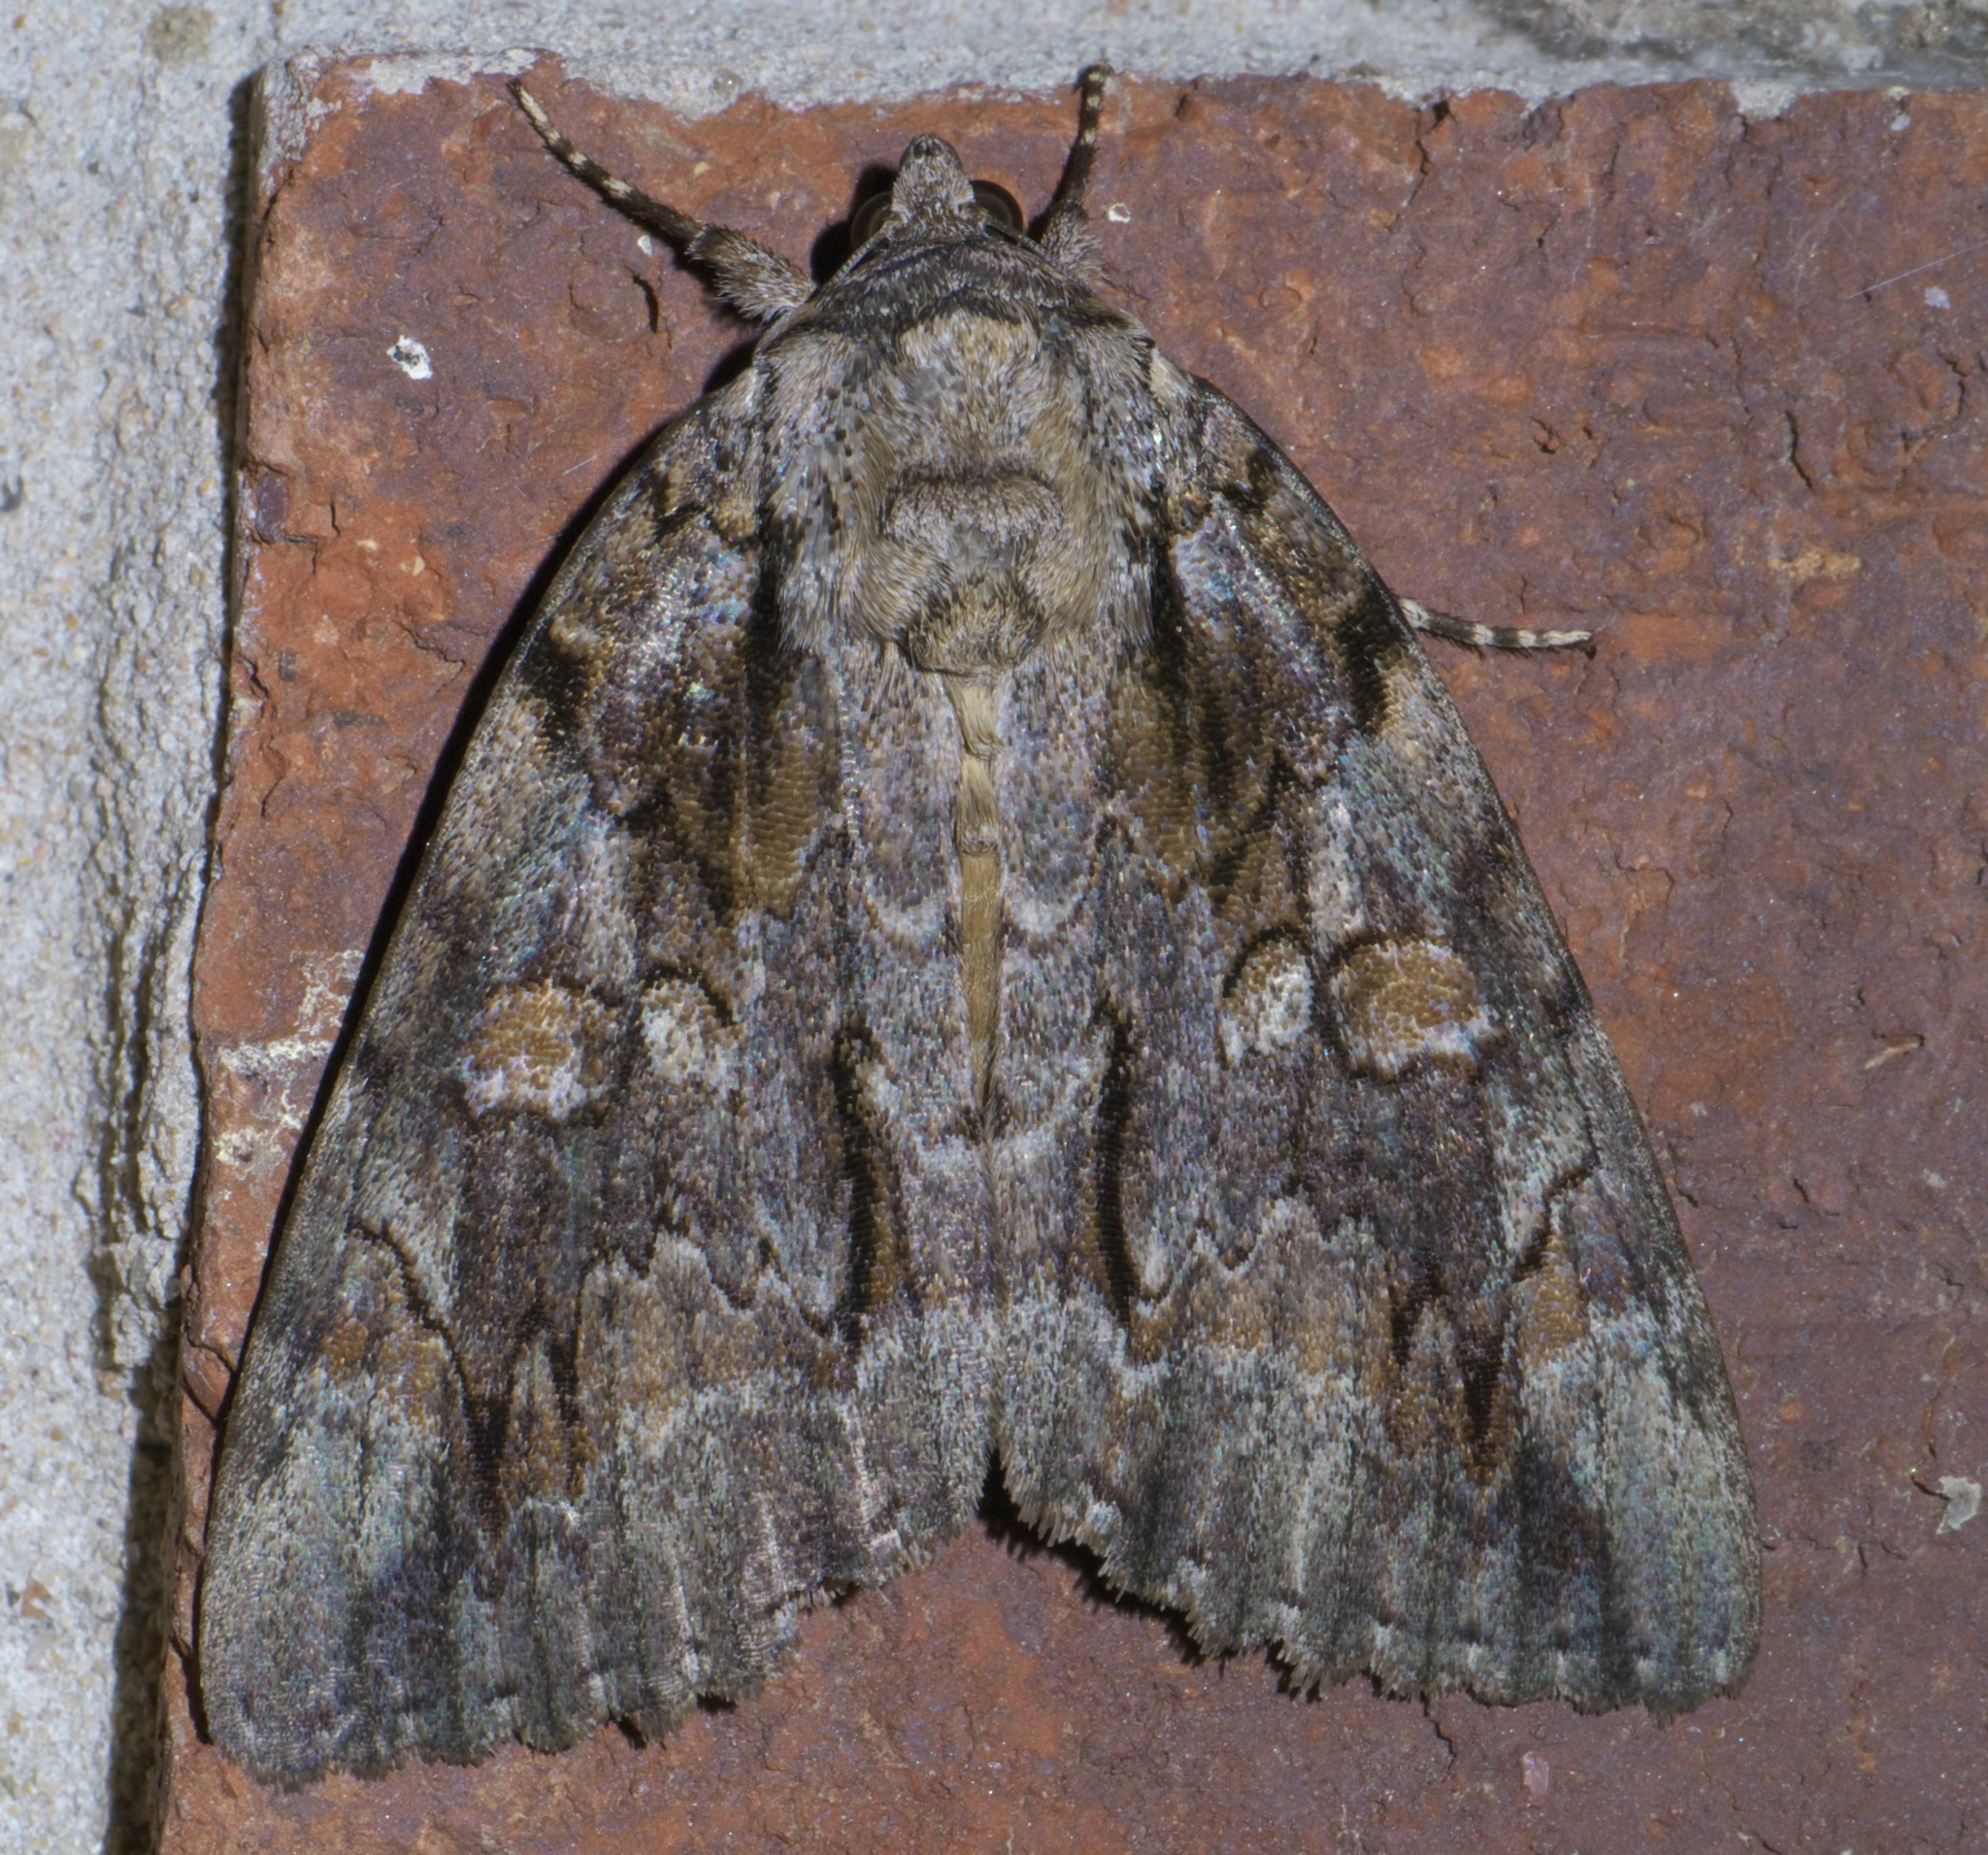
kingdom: Animalia
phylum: Arthropoda
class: Insecta
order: Lepidoptera
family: Erebidae
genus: Catocala
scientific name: Catocala neogama
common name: Bride underwing
